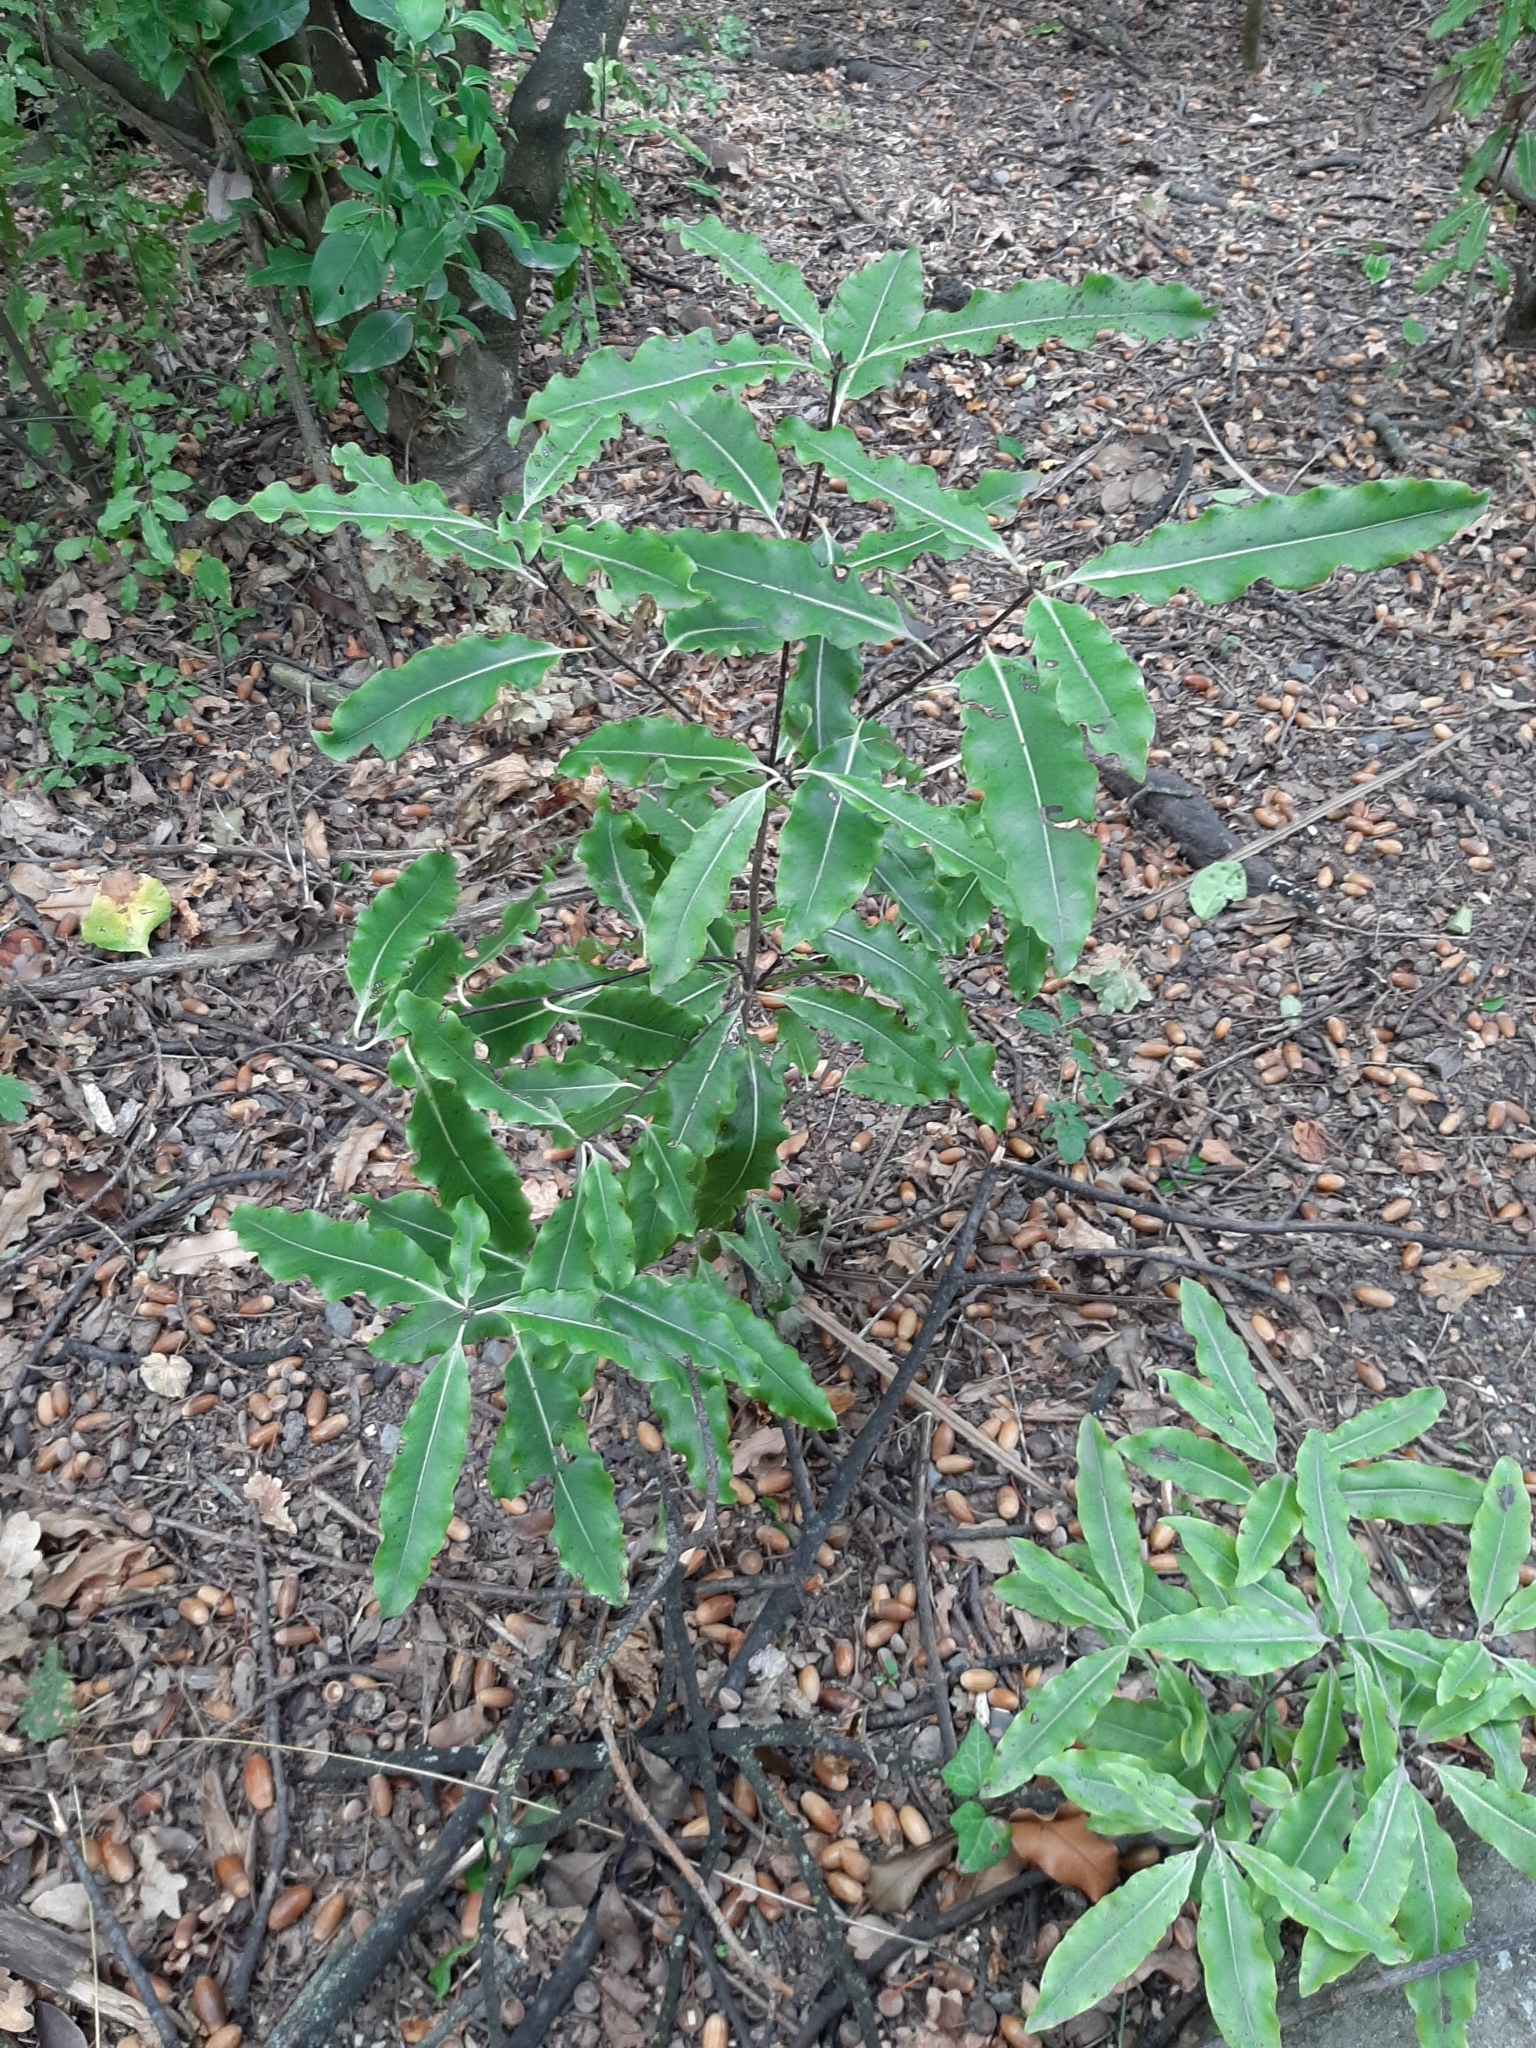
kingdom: Plantae
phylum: Tracheophyta
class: Magnoliopsida
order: Apiales
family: Pittosporaceae
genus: Pittosporum
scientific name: Pittosporum eugenioides
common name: Lemonwood
